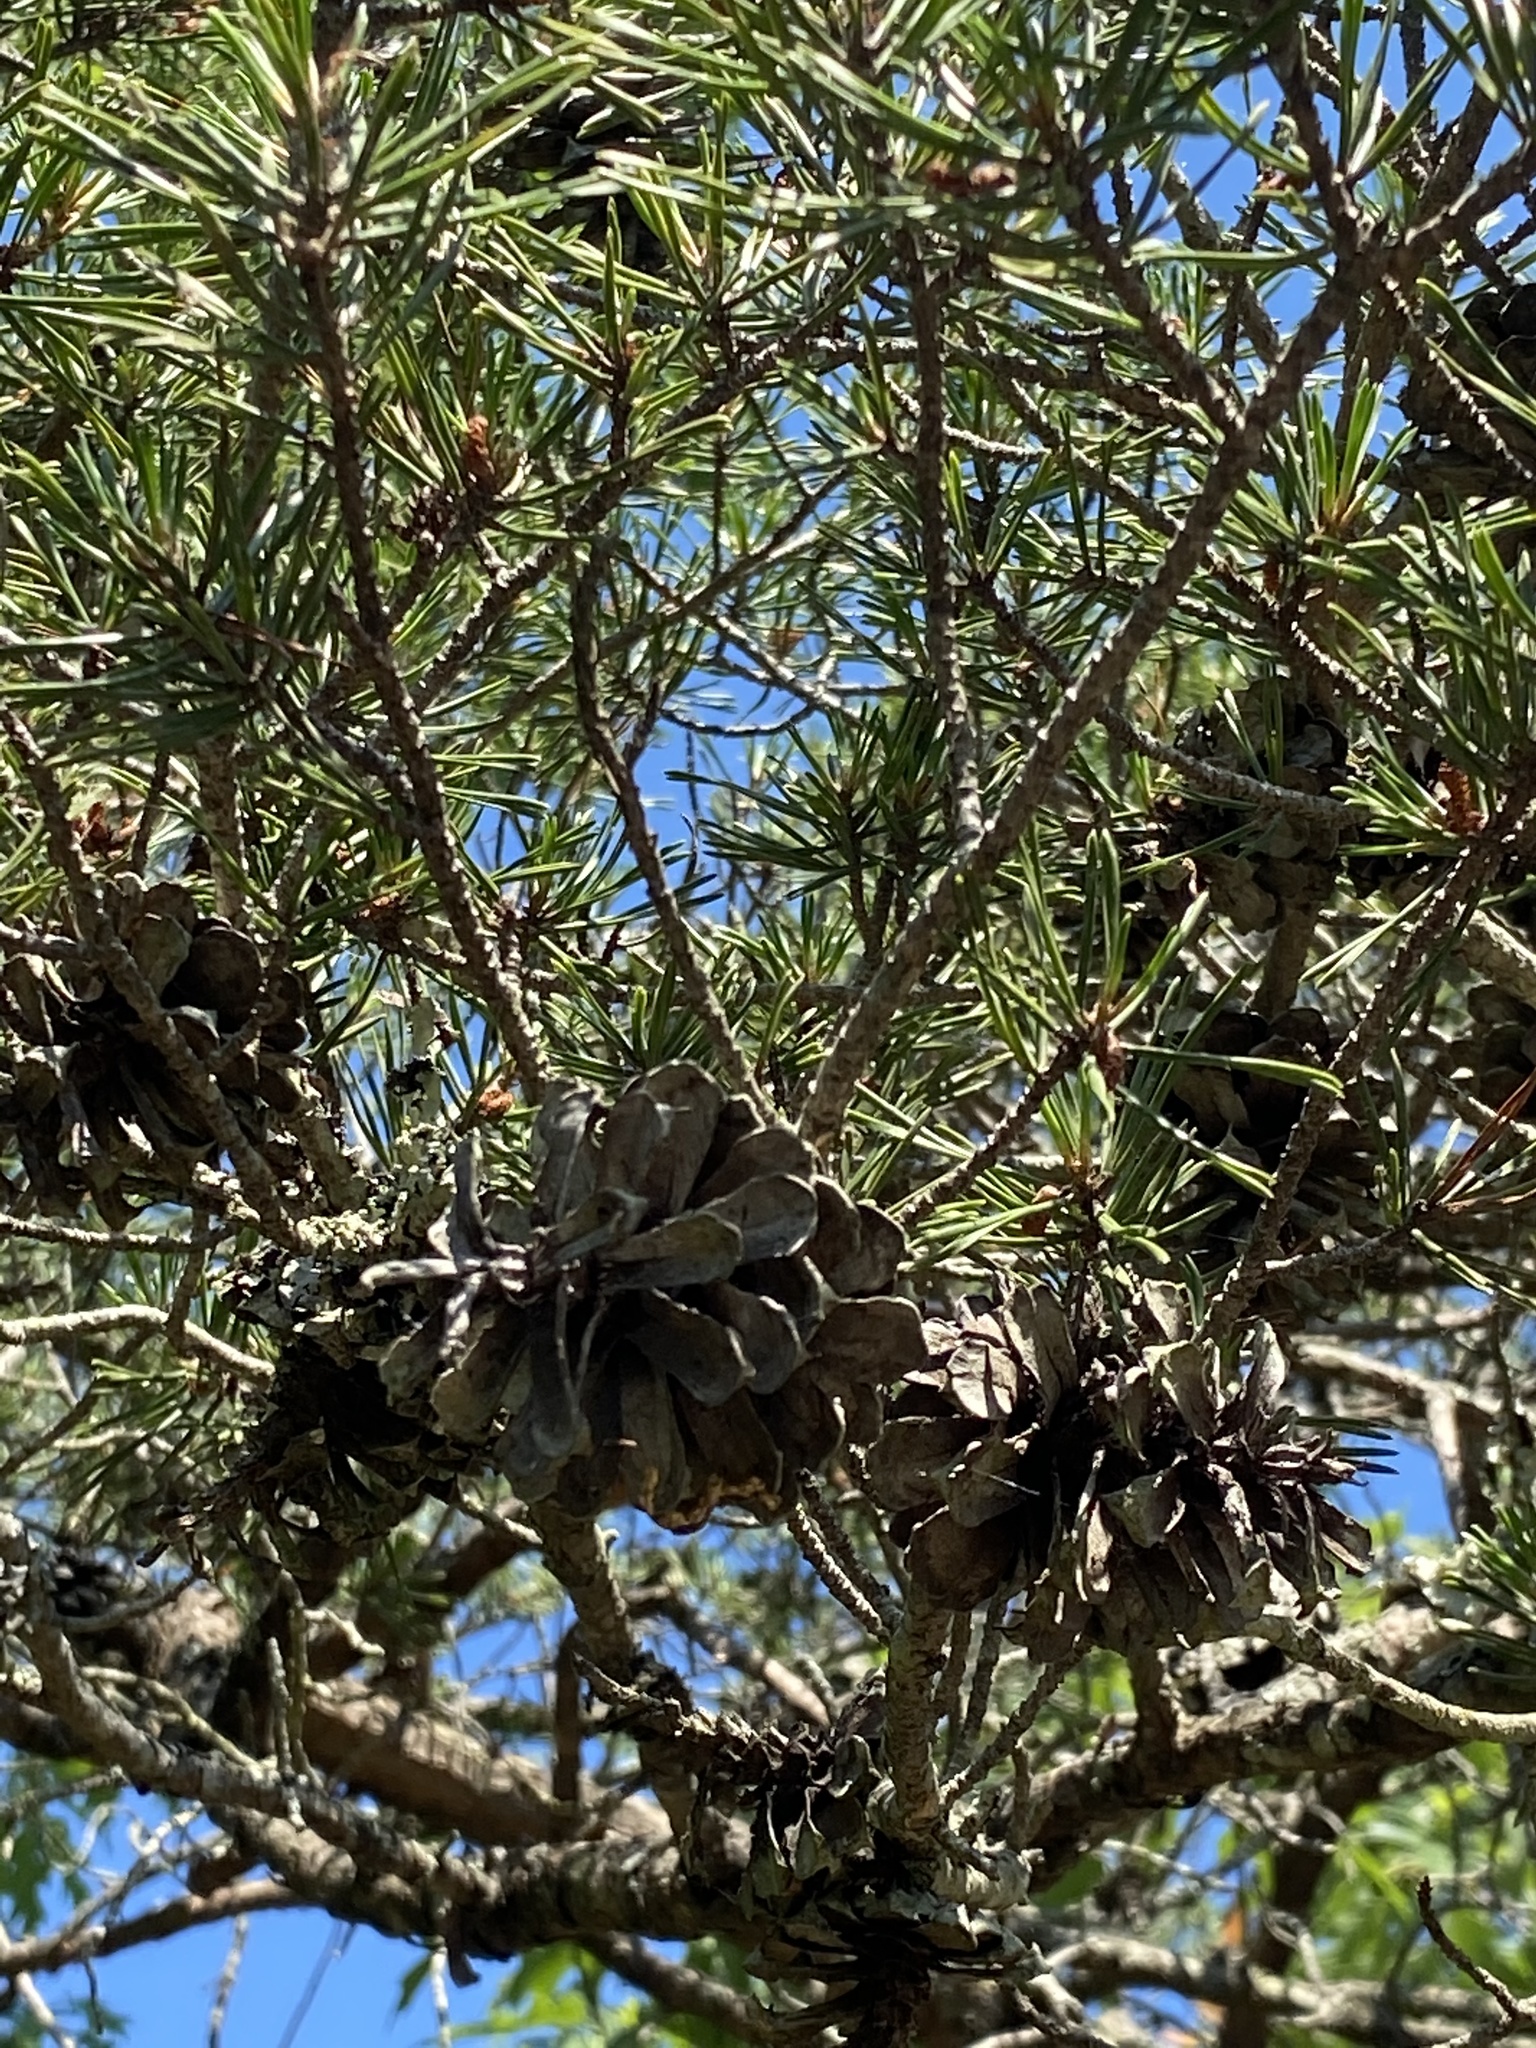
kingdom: Plantae
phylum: Tracheophyta
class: Pinopsida
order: Pinales
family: Pinaceae
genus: Pinus
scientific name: Pinus virginiana
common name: Scrub pine
